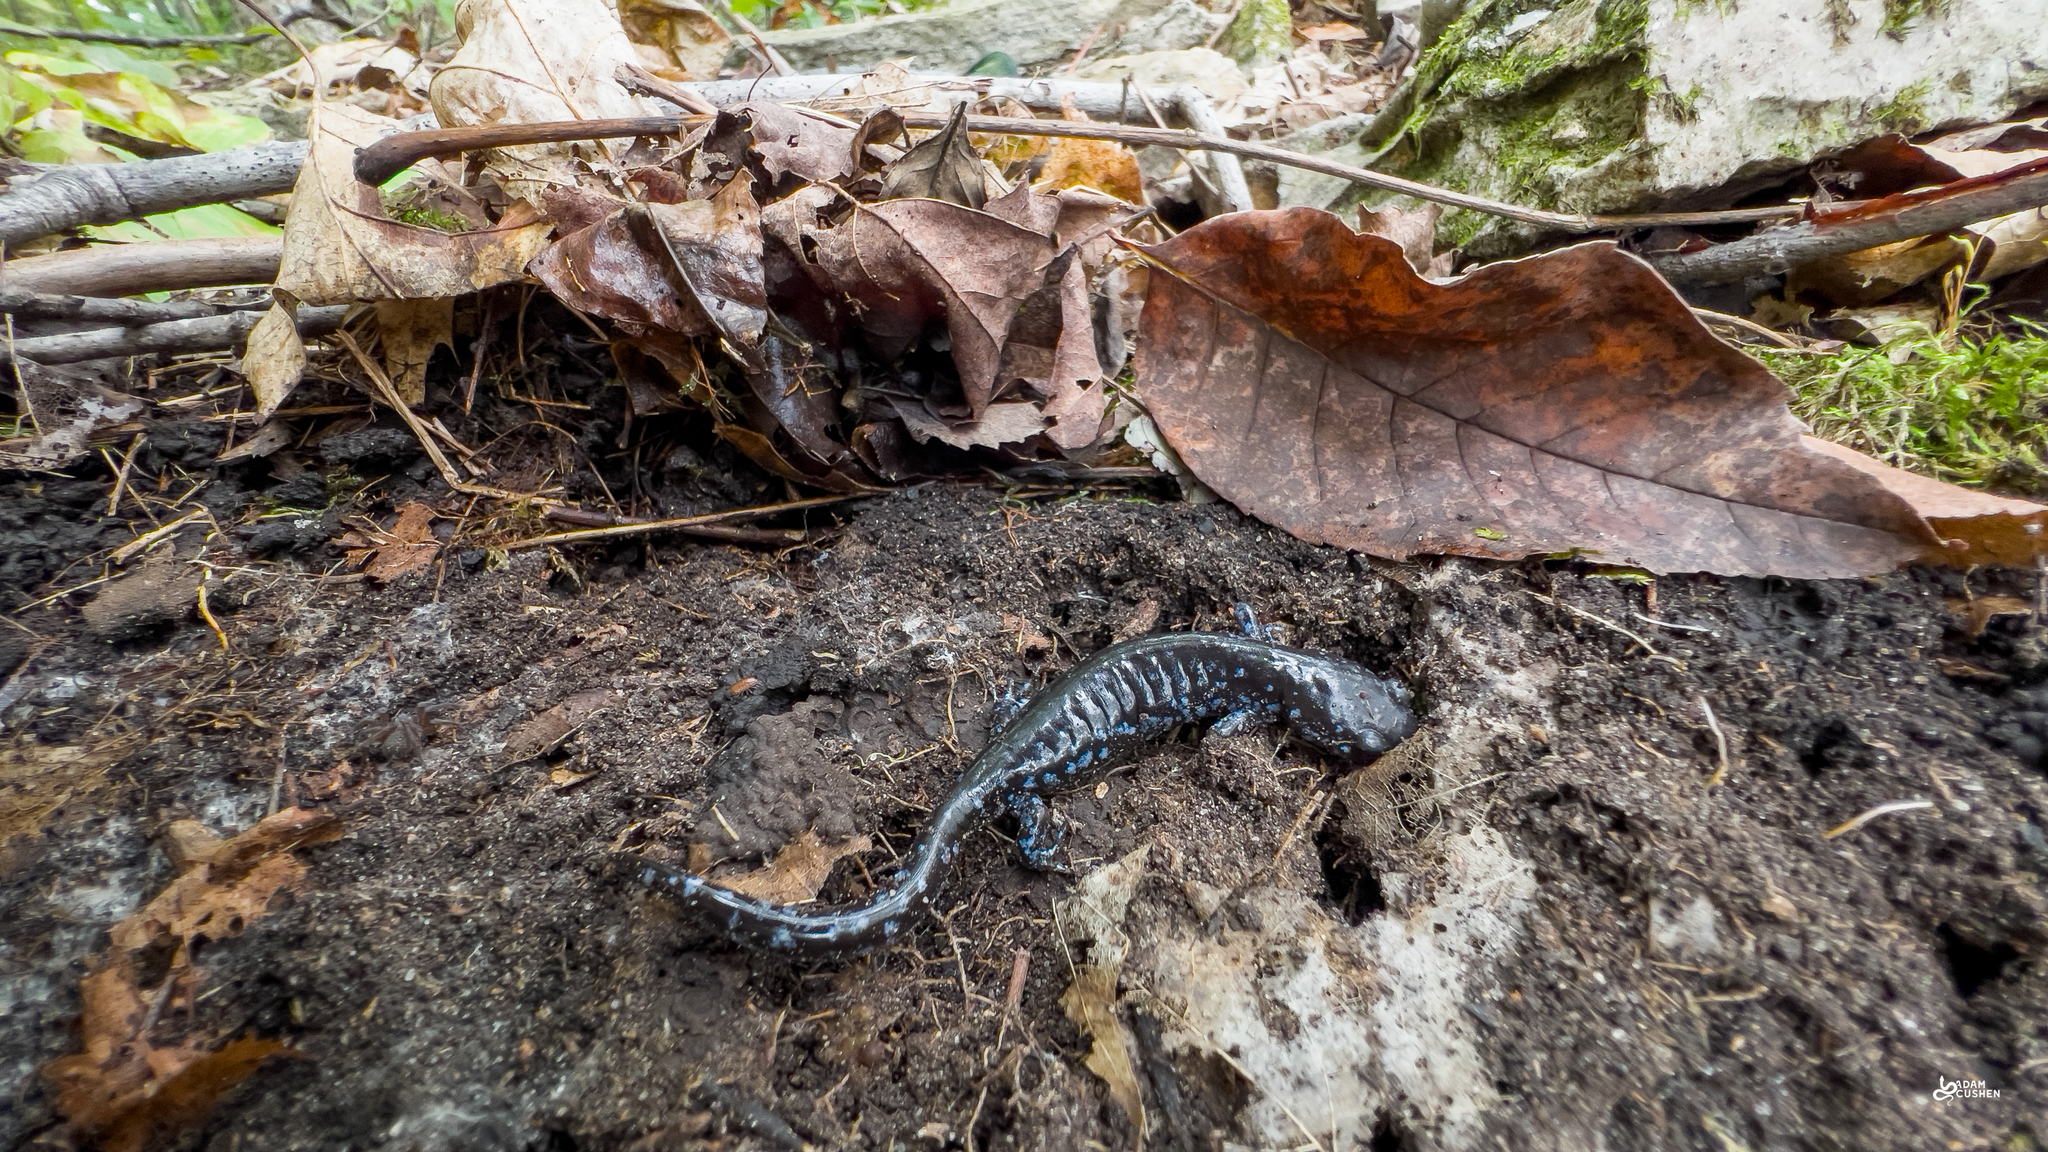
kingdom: Animalia
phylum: Chordata
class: Amphibia
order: Caudata
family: Ambystomatidae
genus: Ambystoma
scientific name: Ambystoma laterale
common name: Blue-spotted salamander
